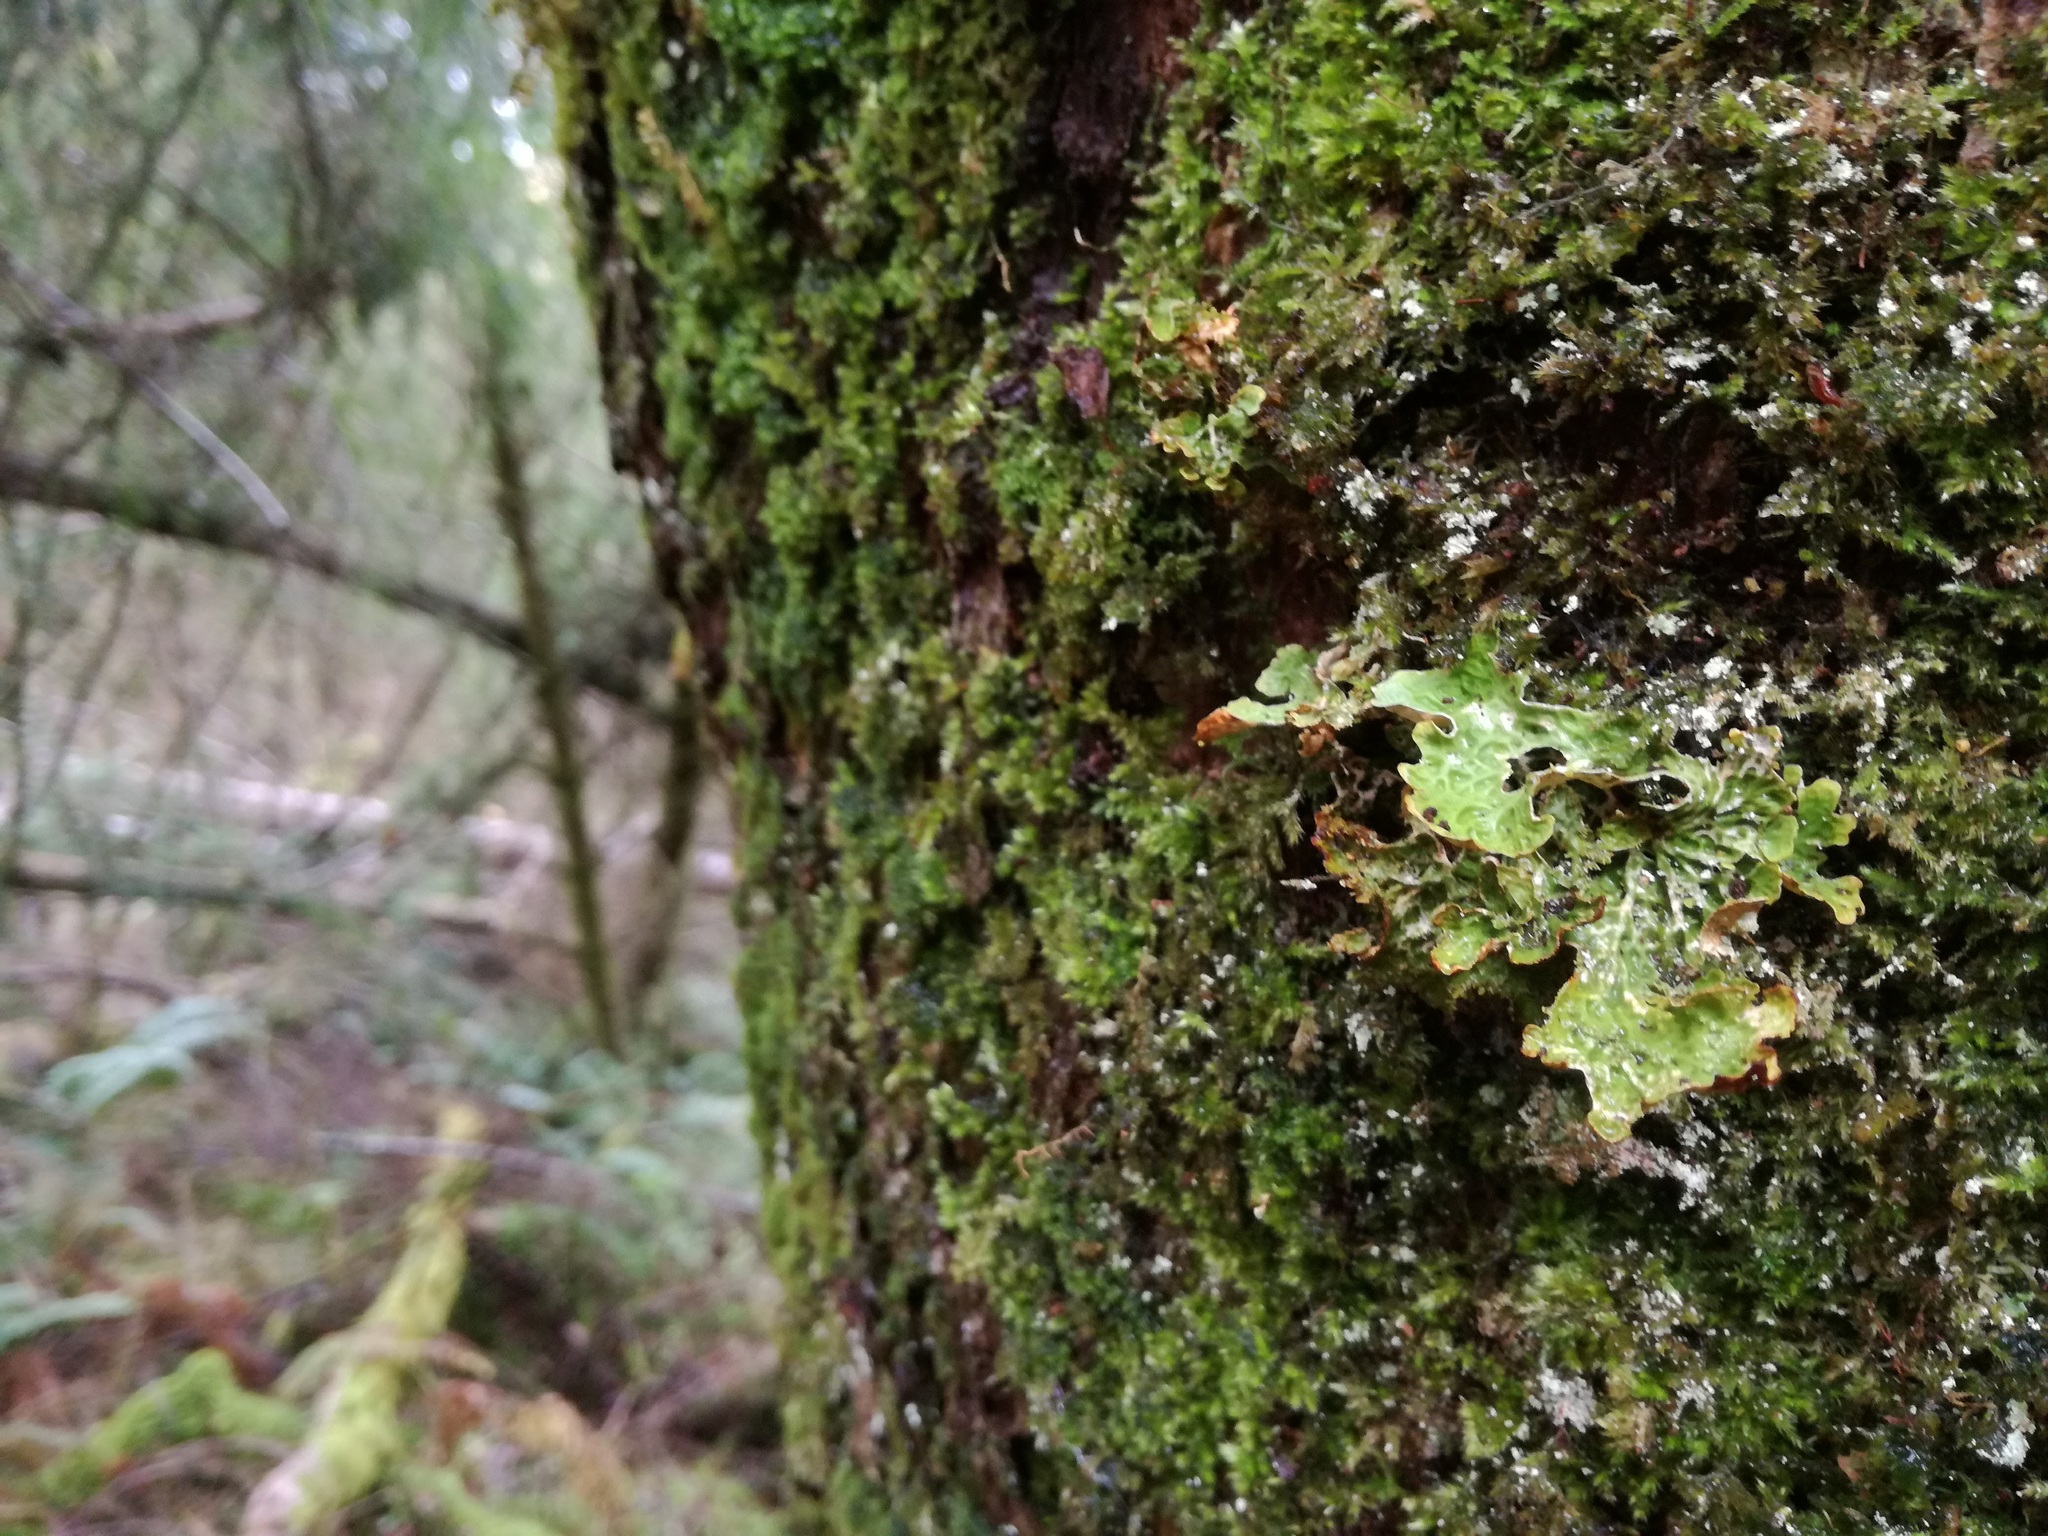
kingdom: Fungi
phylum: Ascomycota
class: Lecanoromycetes
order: Peltigerales
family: Lobariaceae
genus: Lobaria
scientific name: Lobaria pulmonaria
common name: Lungwort
